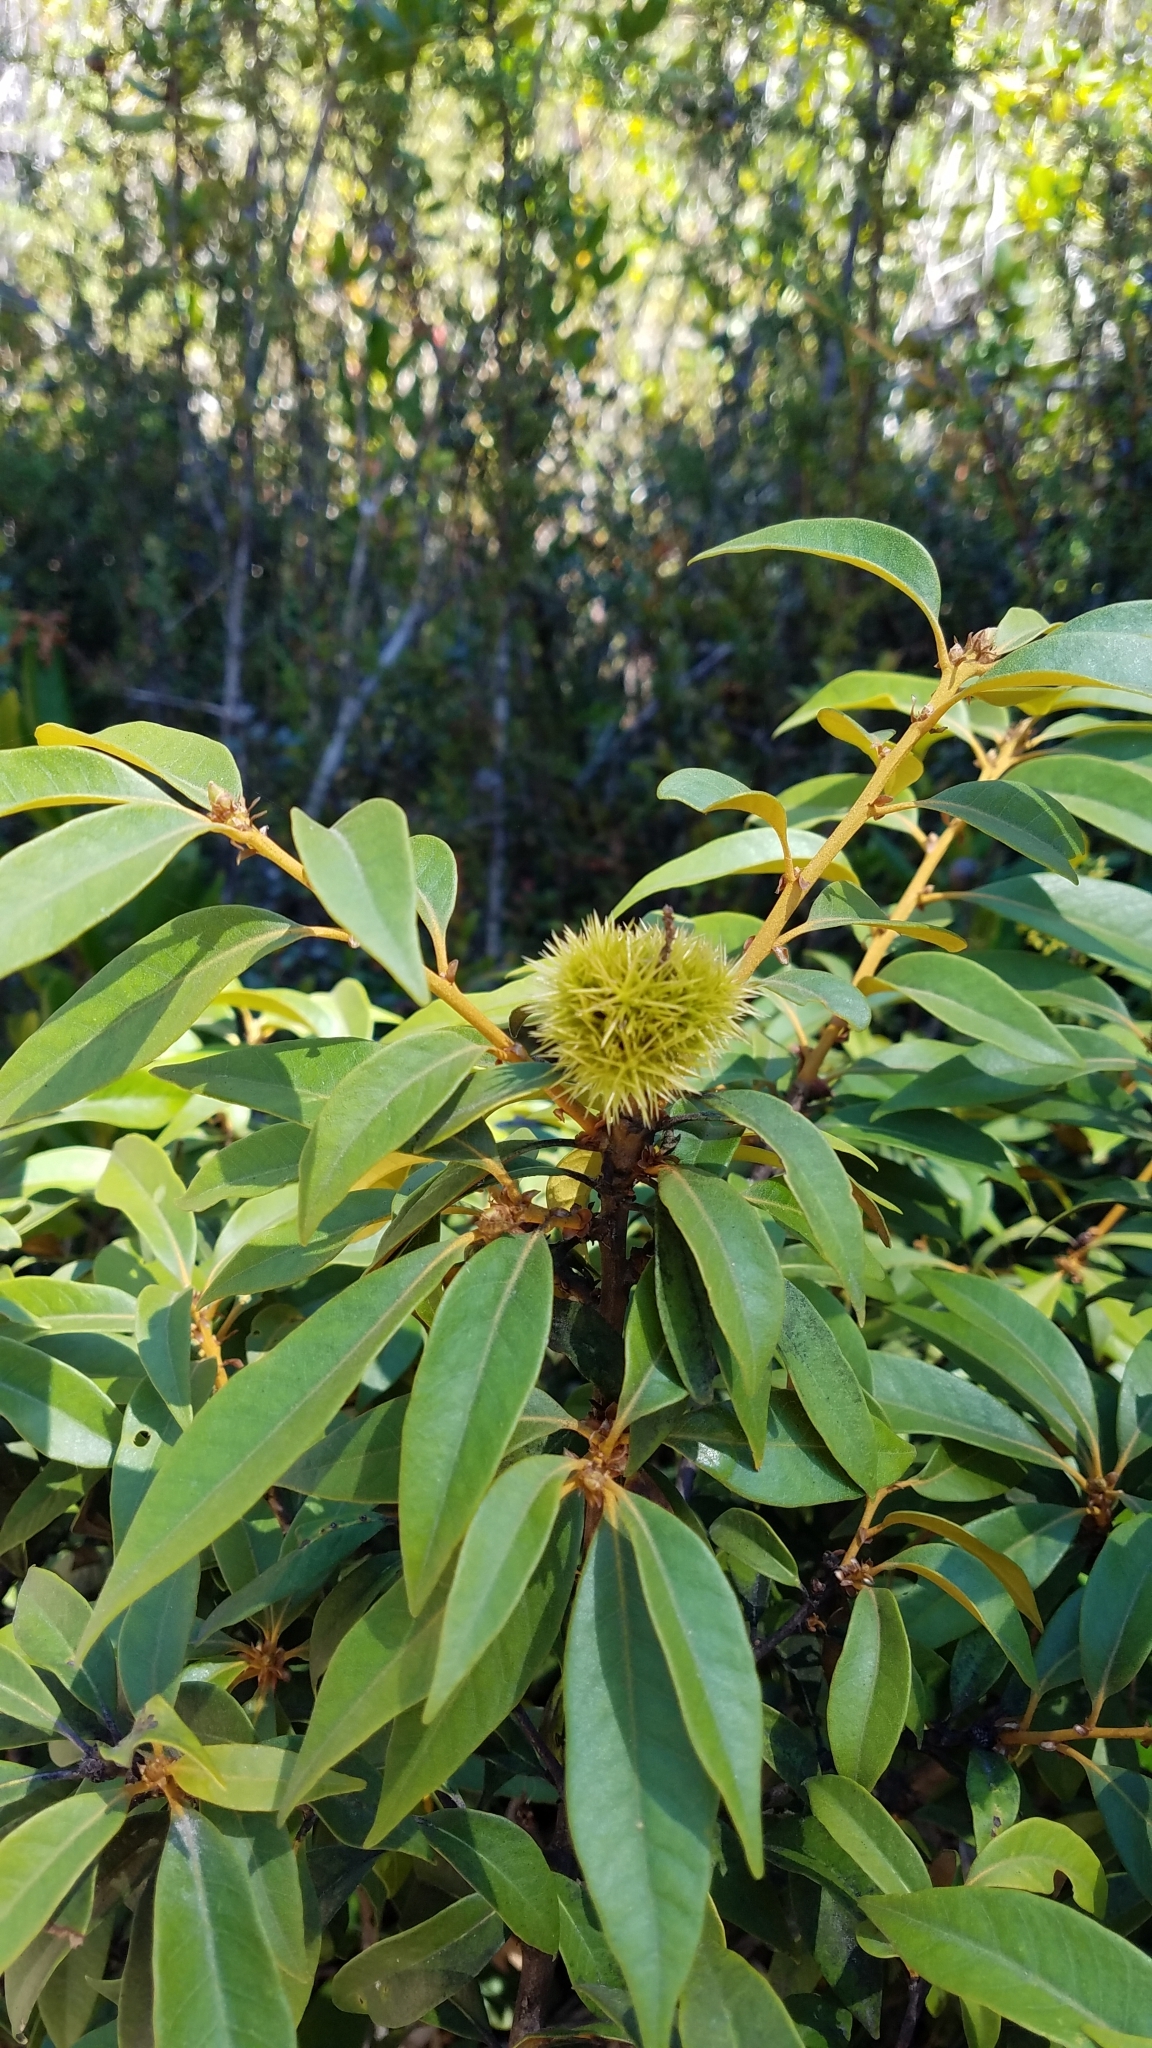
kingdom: Plantae
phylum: Tracheophyta
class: Magnoliopsida
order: Fagales
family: Fagaceae
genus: Chrysolepis
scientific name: Chrysolepis chrysophylla
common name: Giant chinquapin
